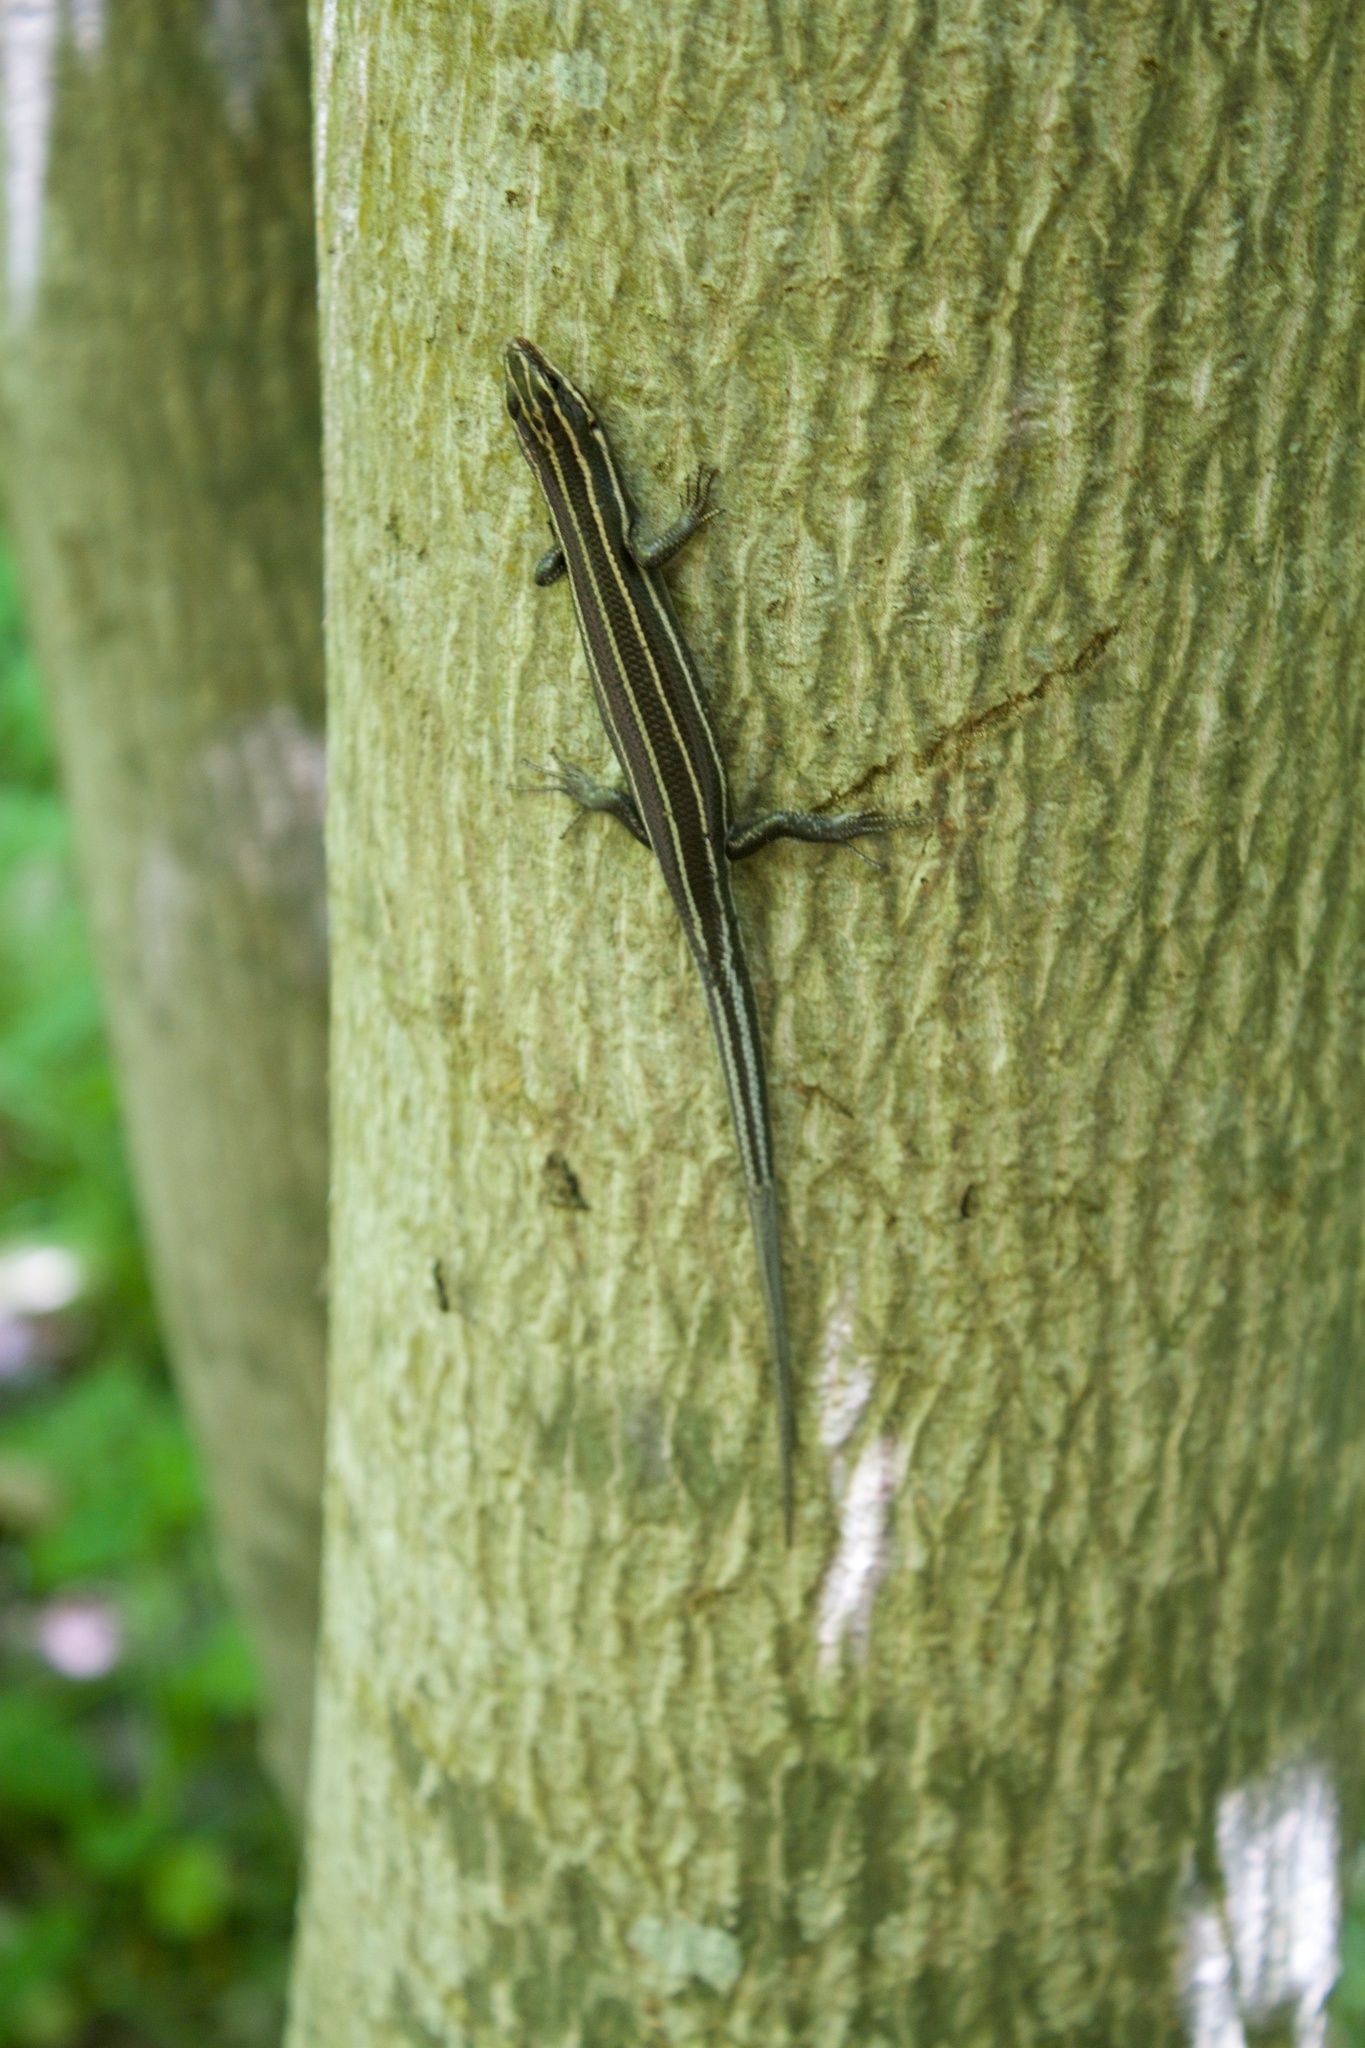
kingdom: Animalia
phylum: Chordata
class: Squamata
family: Scincidae
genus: Plestiodon
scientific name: Plestiodon fasciatus
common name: Five-lined skink
